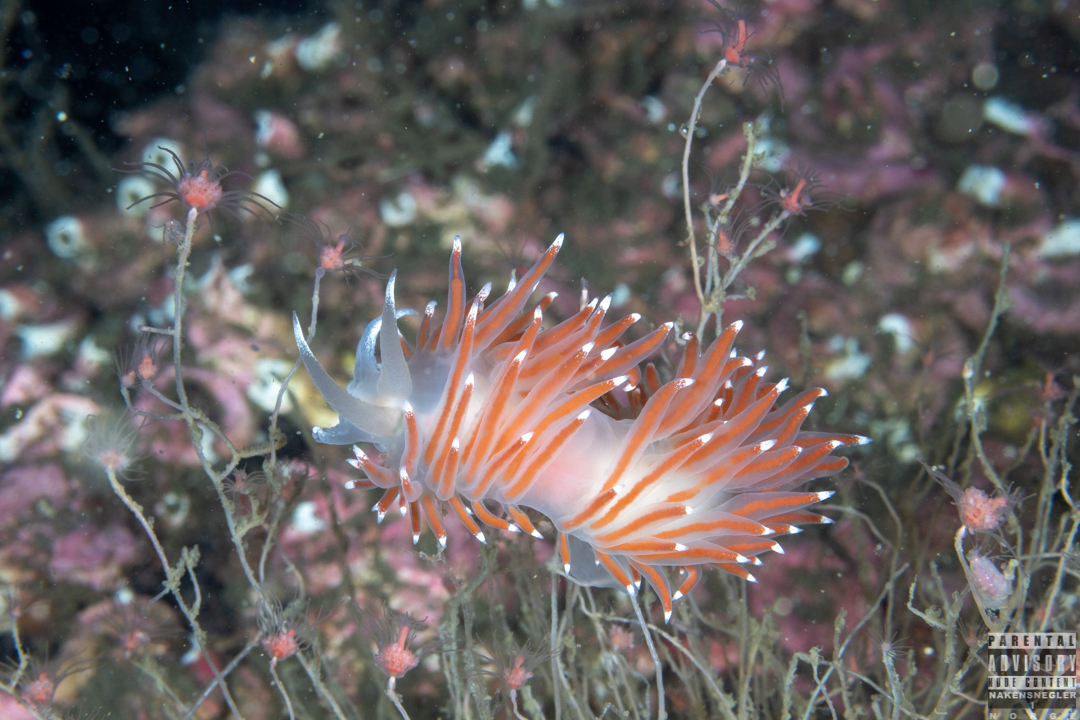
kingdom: Animalia
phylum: Mollusca
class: Gastropoda
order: Nudibranchia
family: Coryphellidae
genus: Coryphella
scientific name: Coryphella browni
